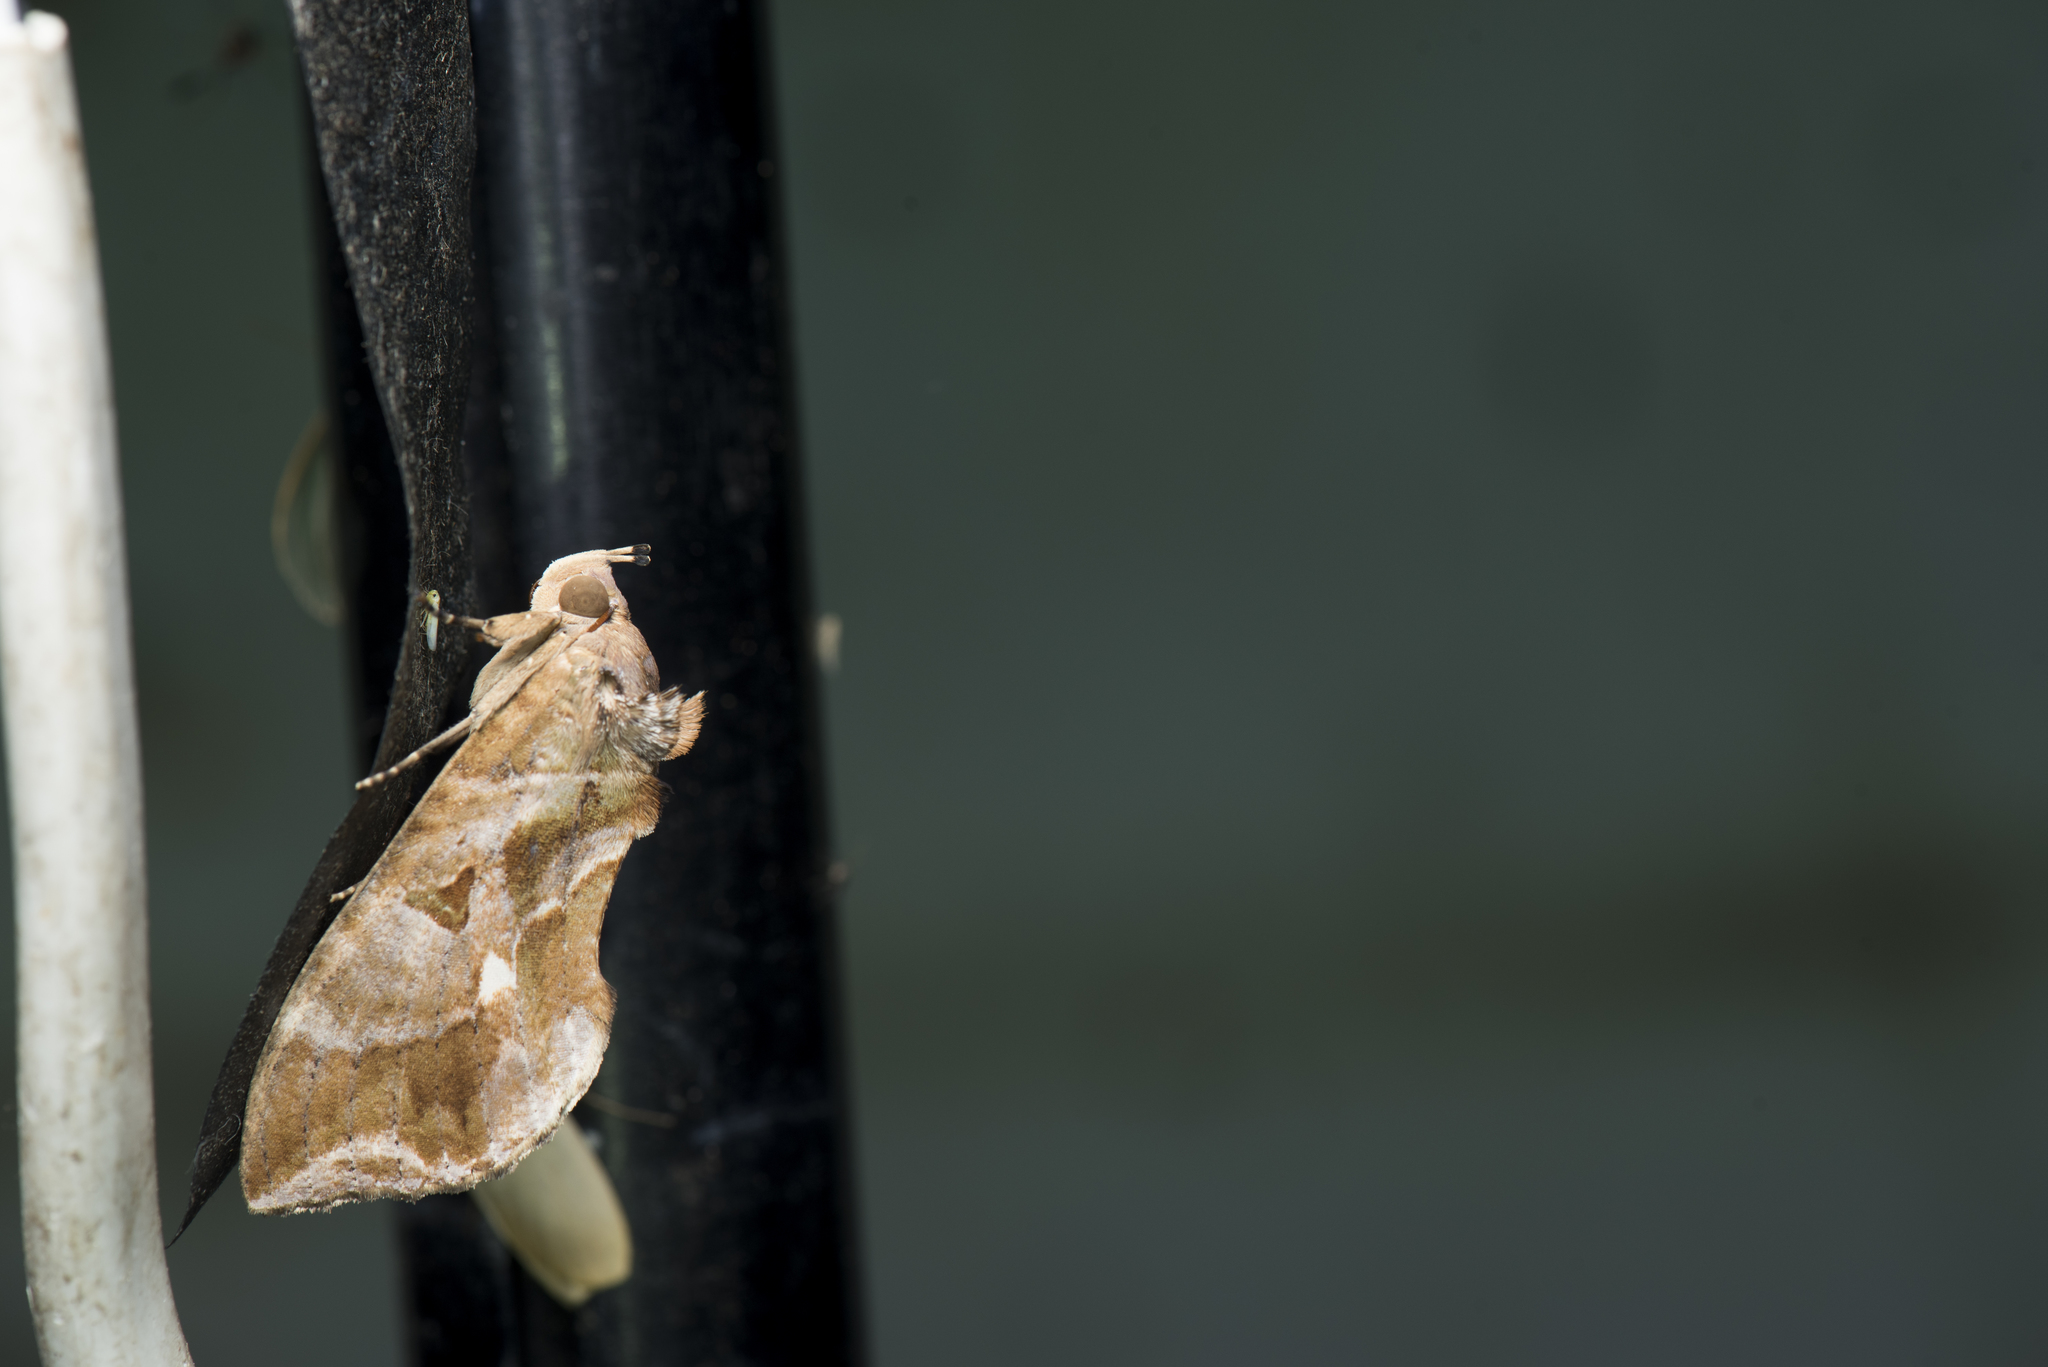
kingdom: Animalia
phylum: Arthropoda
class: Insecta
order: Lepidoptera
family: Erebidae
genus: Eudocima
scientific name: Eudocima phalonia
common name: Wasp
